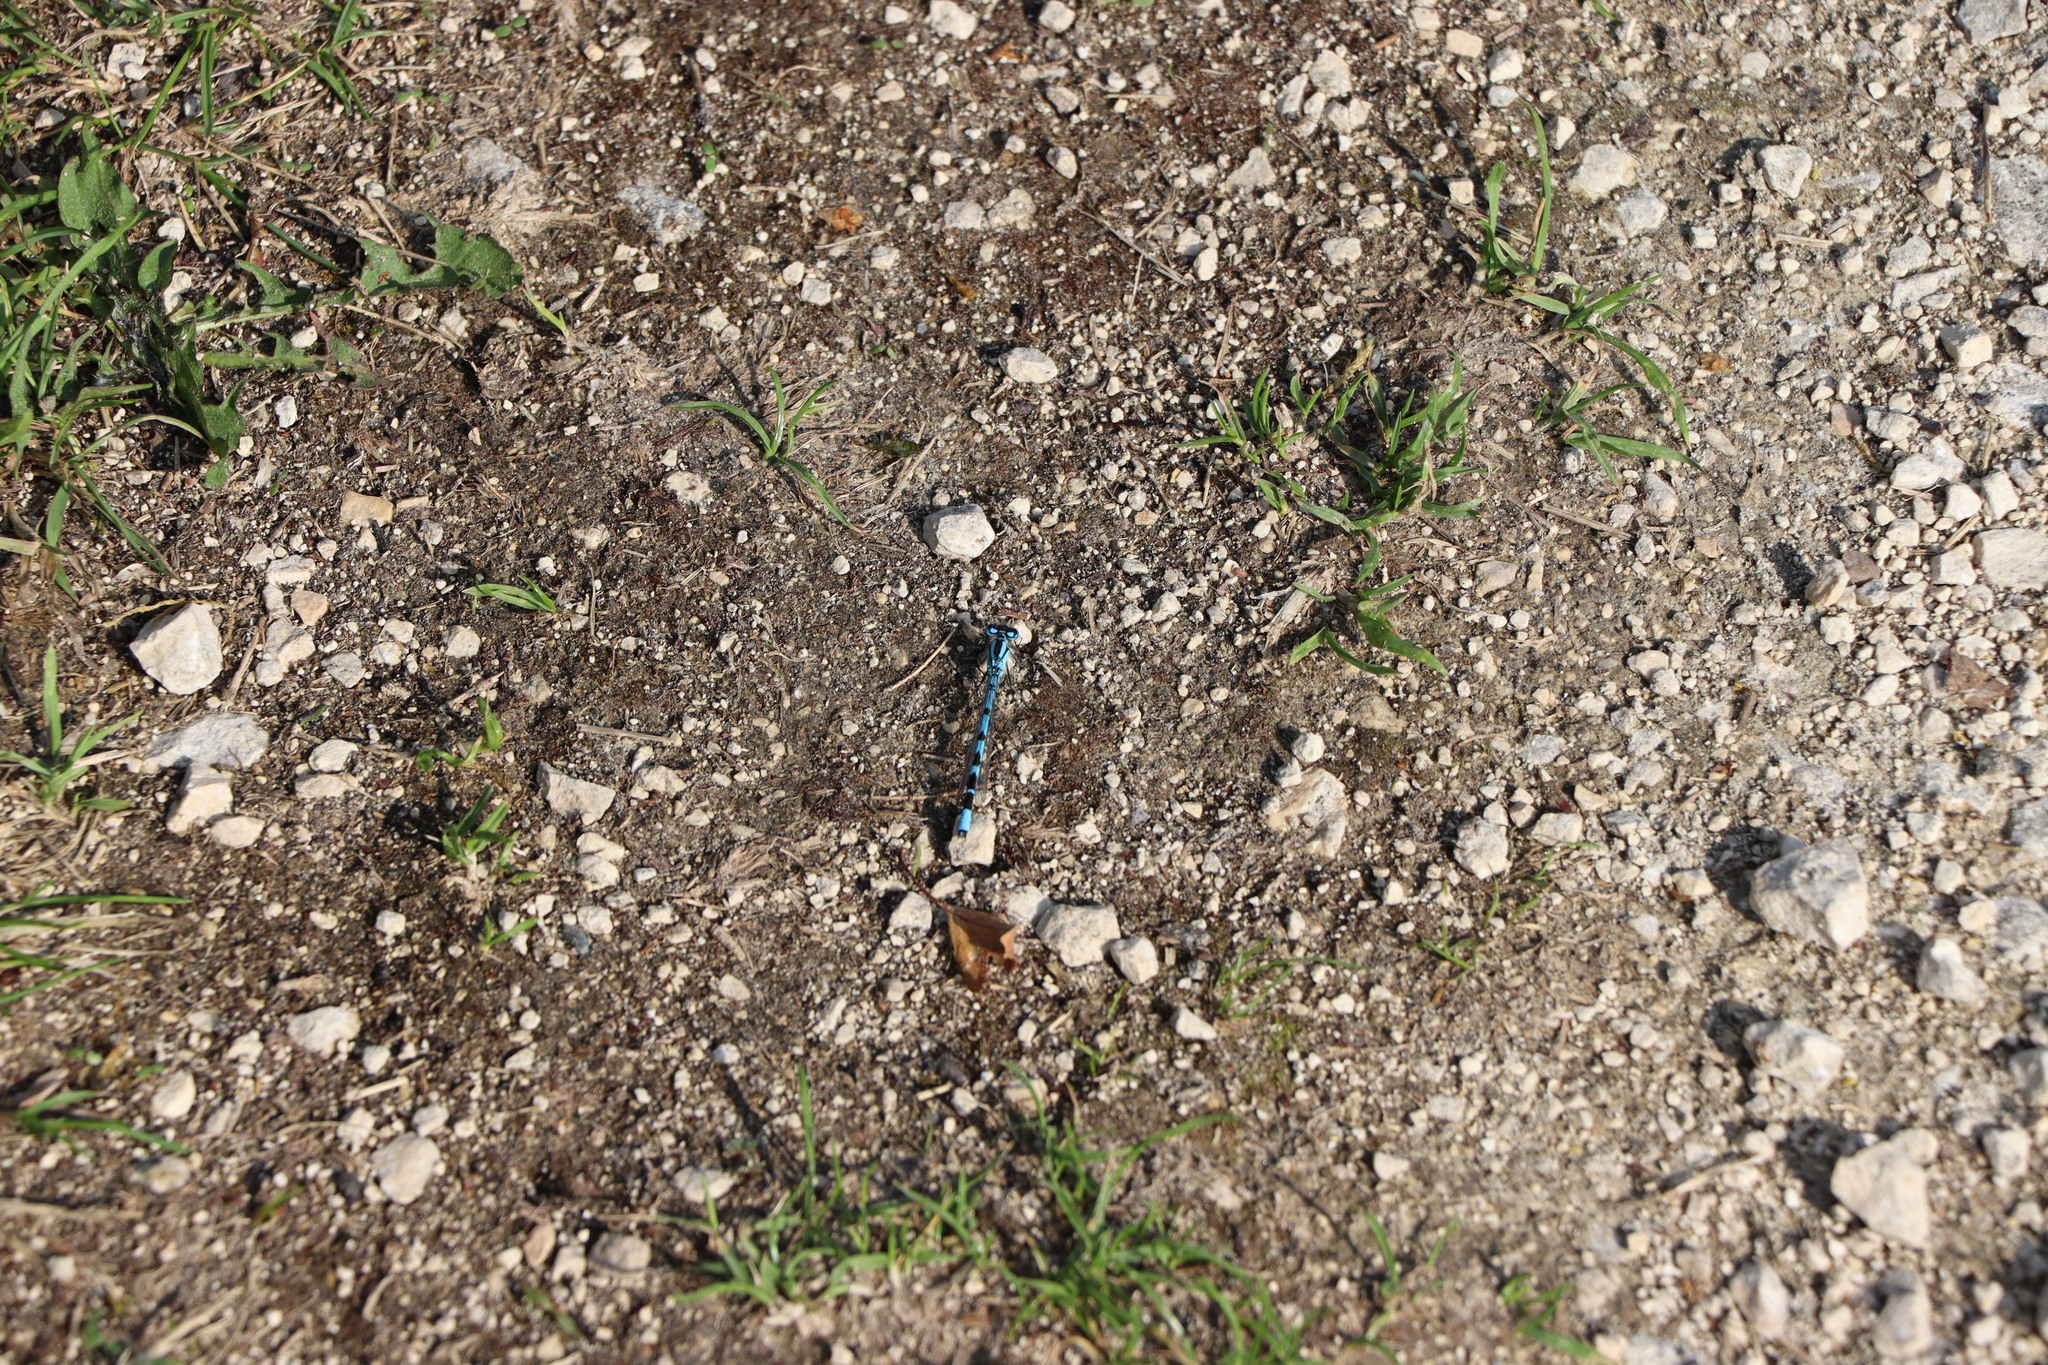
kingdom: Animalia
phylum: Arthropoda
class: Insecta
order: Odonata
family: Coenagrionidae
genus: Enallagma
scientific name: Enallagma cyathigerum
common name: Common blue damselfly
